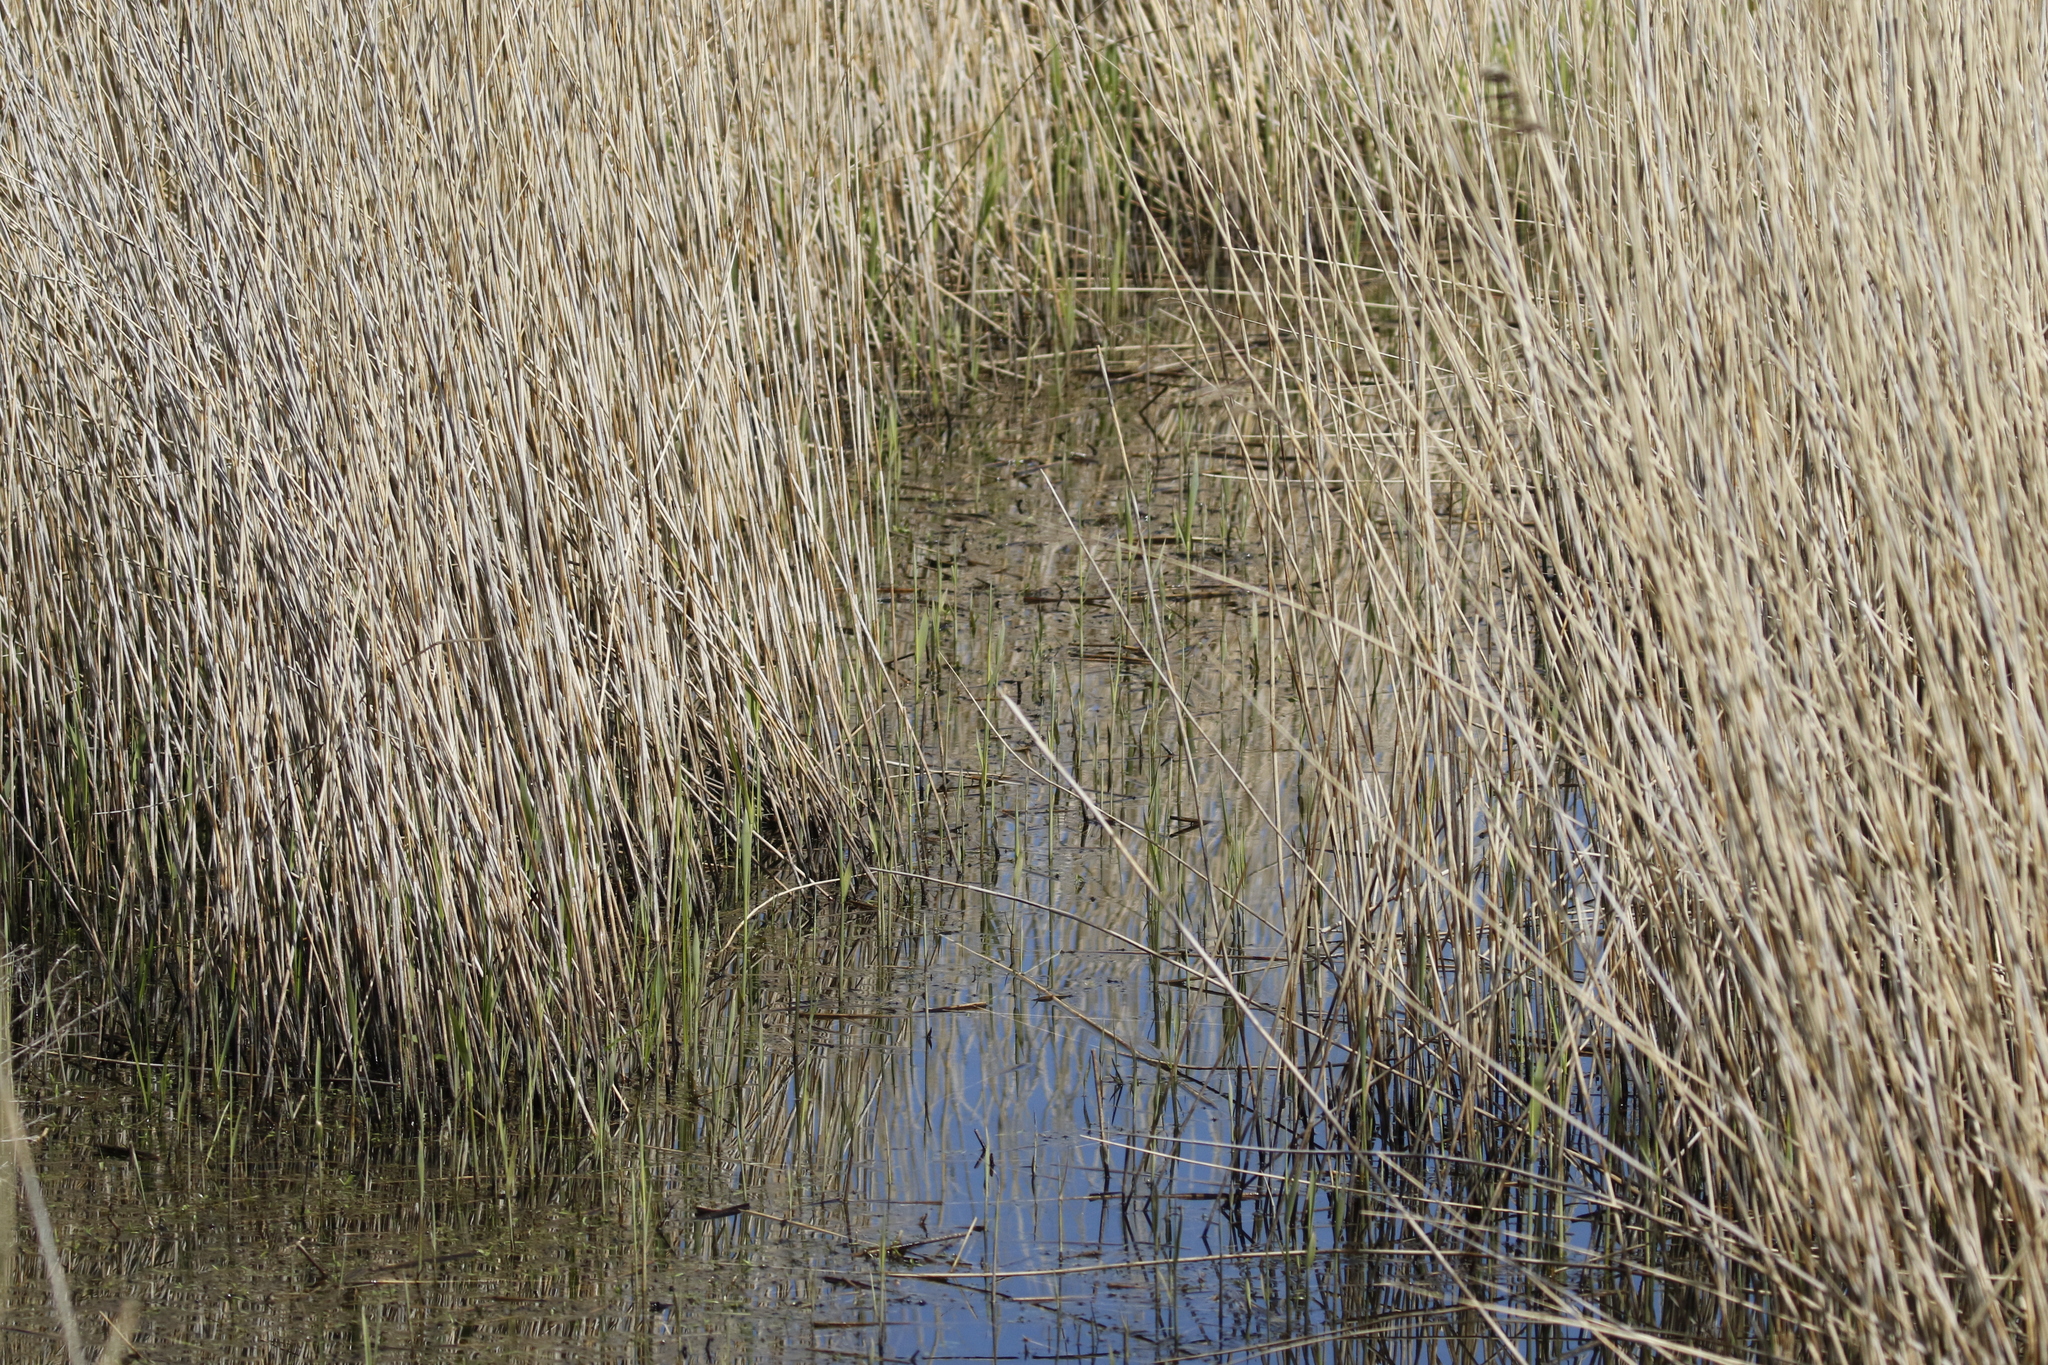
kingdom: Plantae
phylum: Tracheophyta
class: Liliopsida
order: Poales
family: Poaceae
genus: Phragmites
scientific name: Phragmites australis
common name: Common reed
